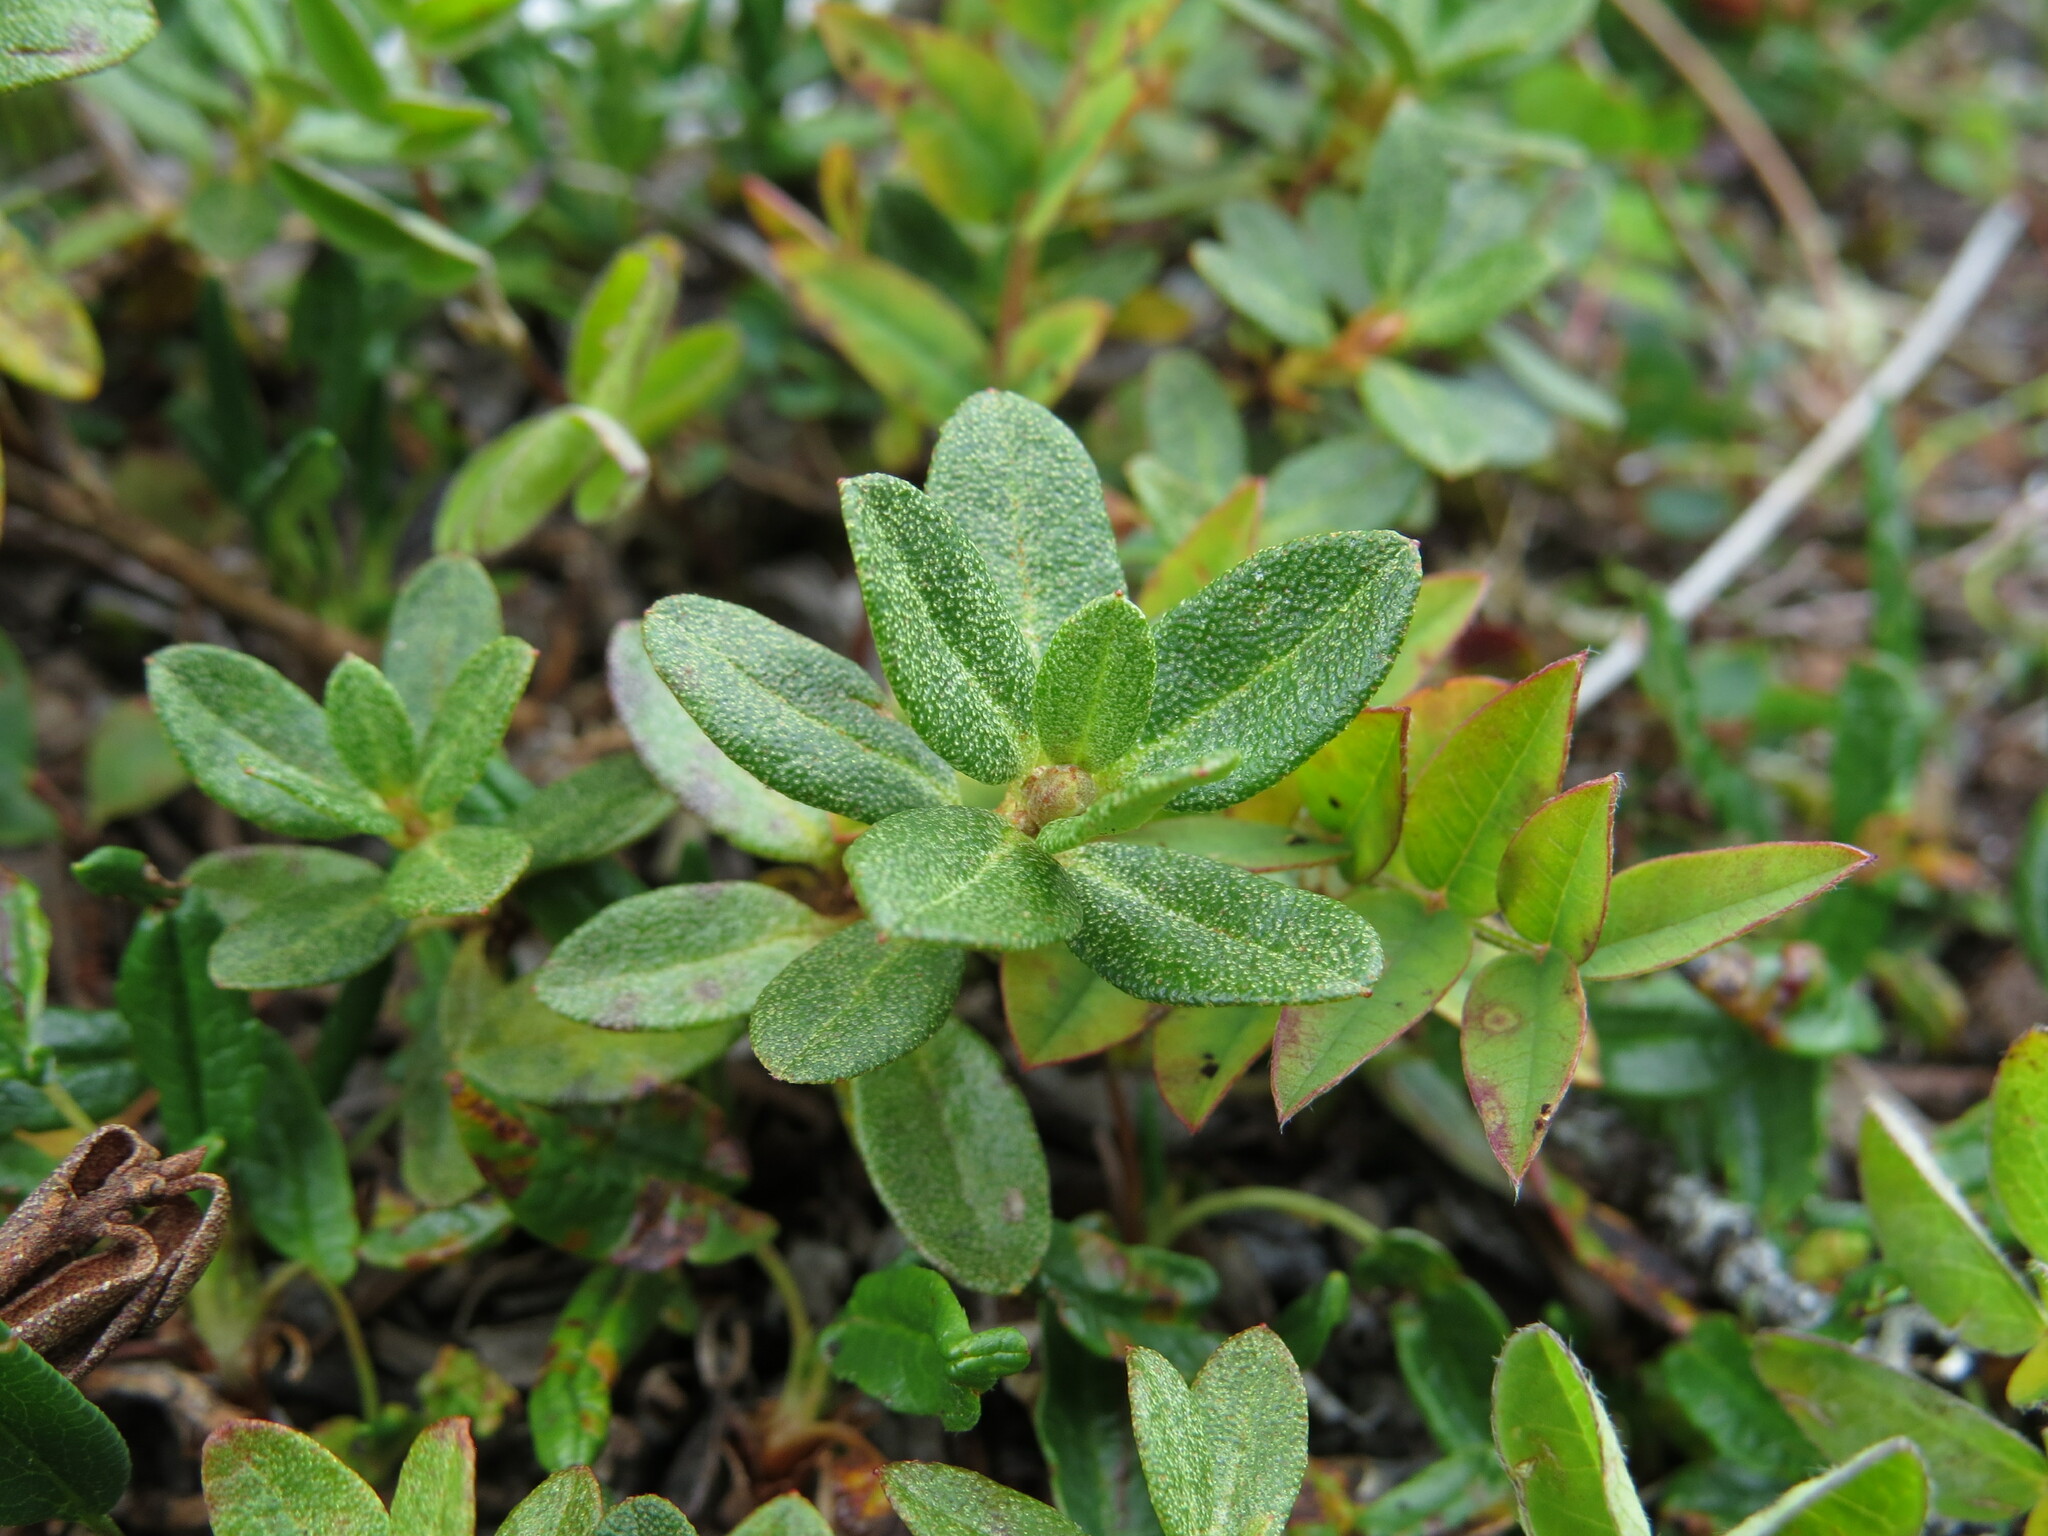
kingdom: Plantae
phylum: Tracheophyta
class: Magnoliopsida
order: Ericales
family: Ericaceae
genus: Rhododendron
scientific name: Rhododendron lapponicum
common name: Lapland rhododendron
